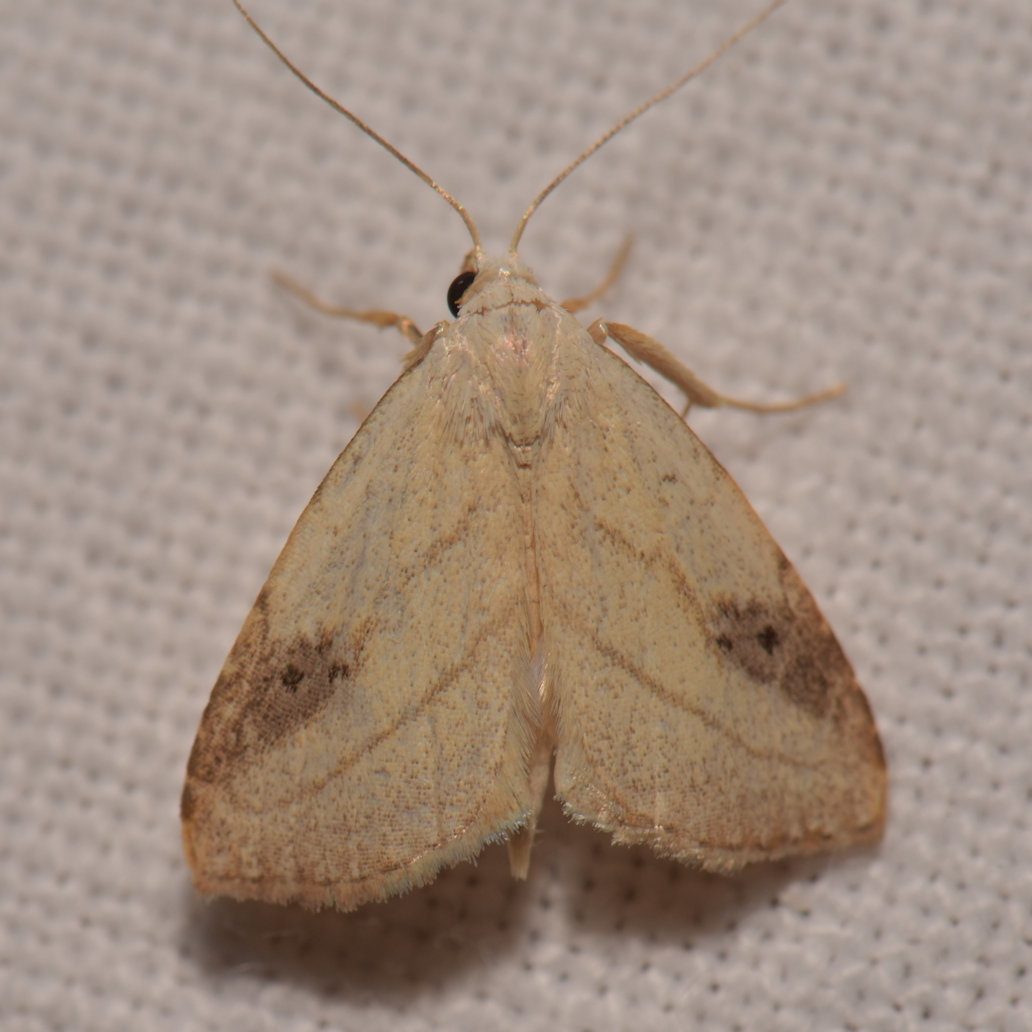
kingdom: Animalia
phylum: Arthropoda
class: Insecta
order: Lepidoptera
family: Erebidae
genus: Rivula
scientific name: Rivula propinqualis
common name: Spotted grass moth
